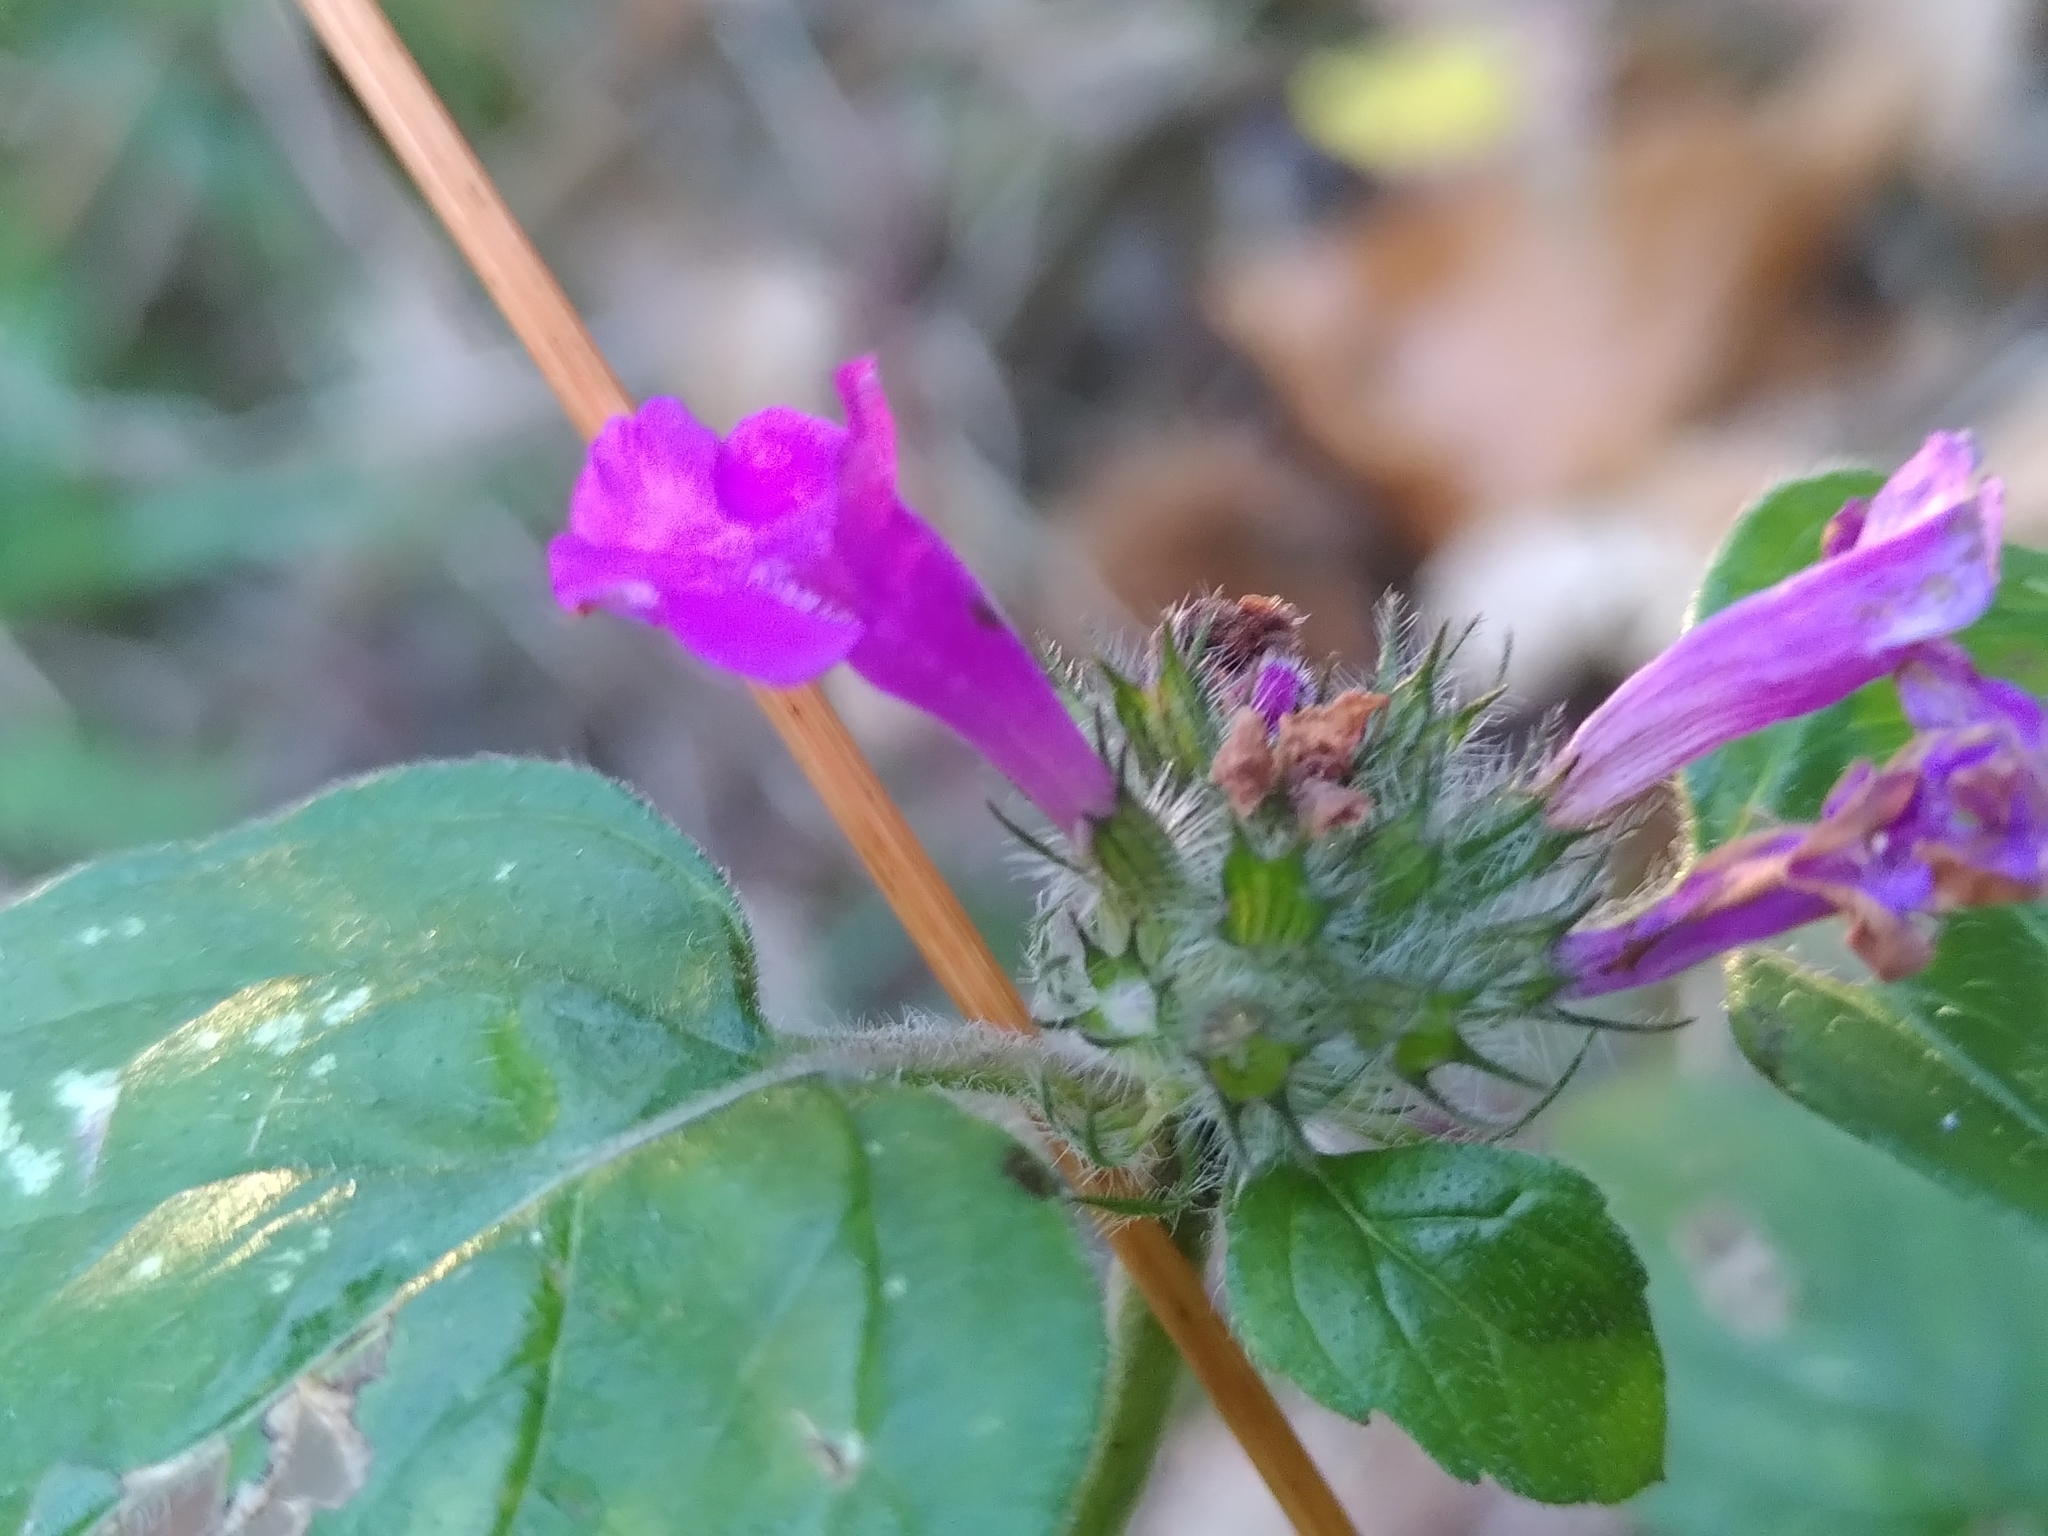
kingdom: Plantae
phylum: Tracheophyta
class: Magnoliopsida
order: Lamiales
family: Lamiaceae
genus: Clinopodium
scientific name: Clinopodium vulgare
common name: Wild basil
